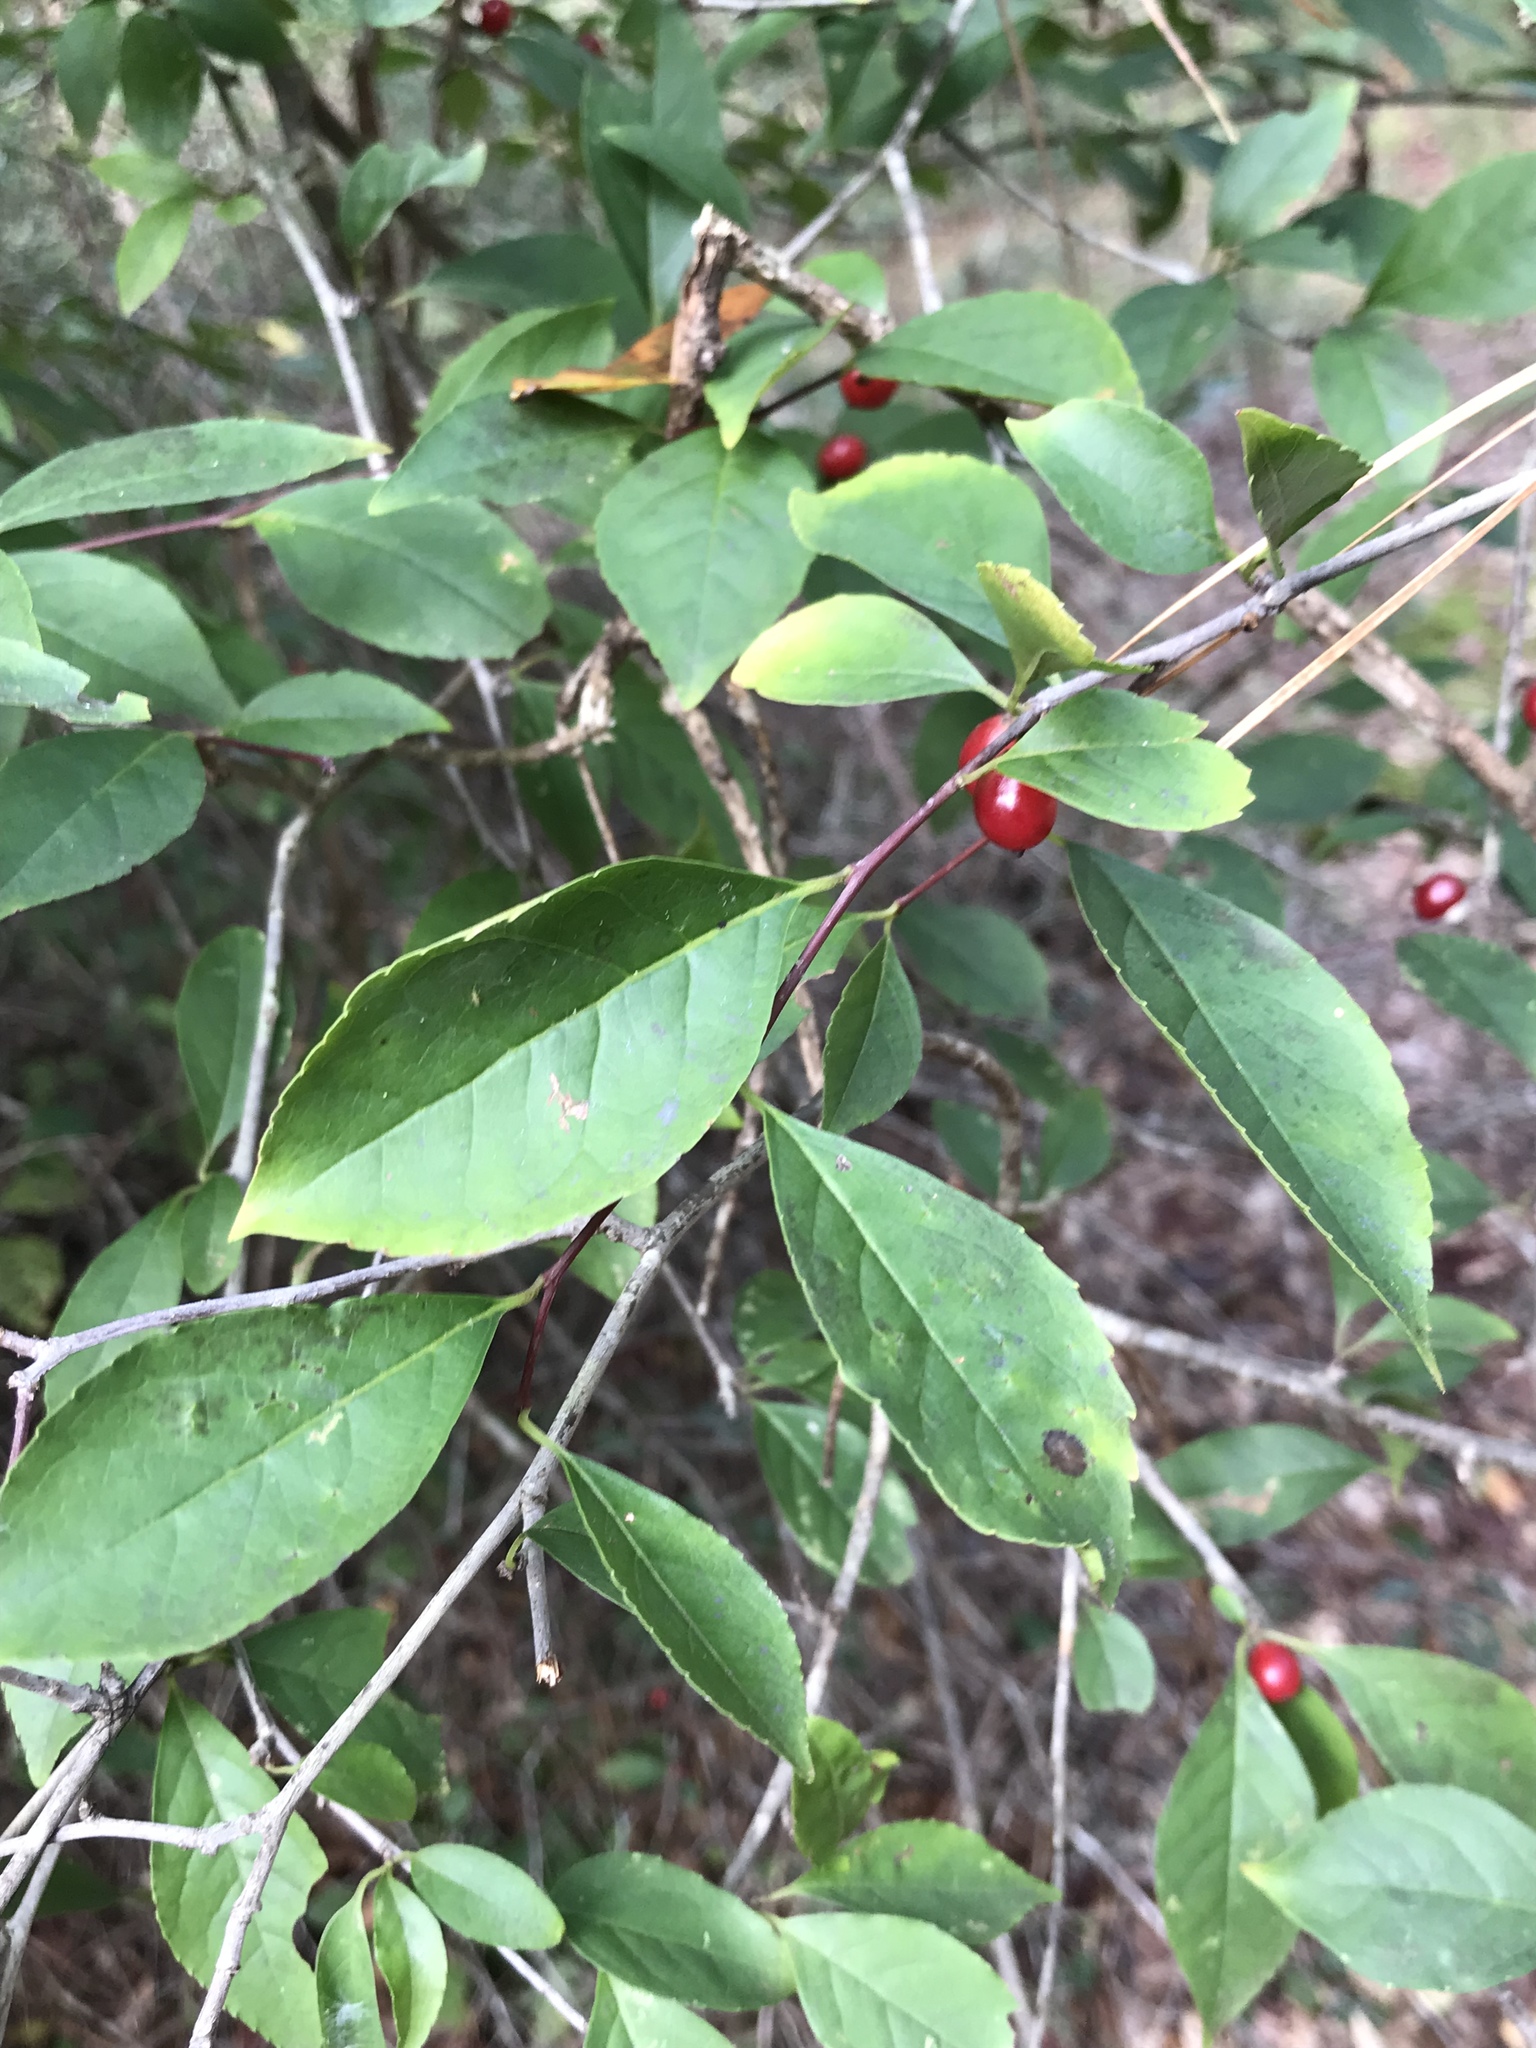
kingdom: Plantae
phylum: Tracheophyta
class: Magnoliopsida
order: Aquifoliales
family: Aquifoliaceae
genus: Ilex
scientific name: Ilex ambigua
